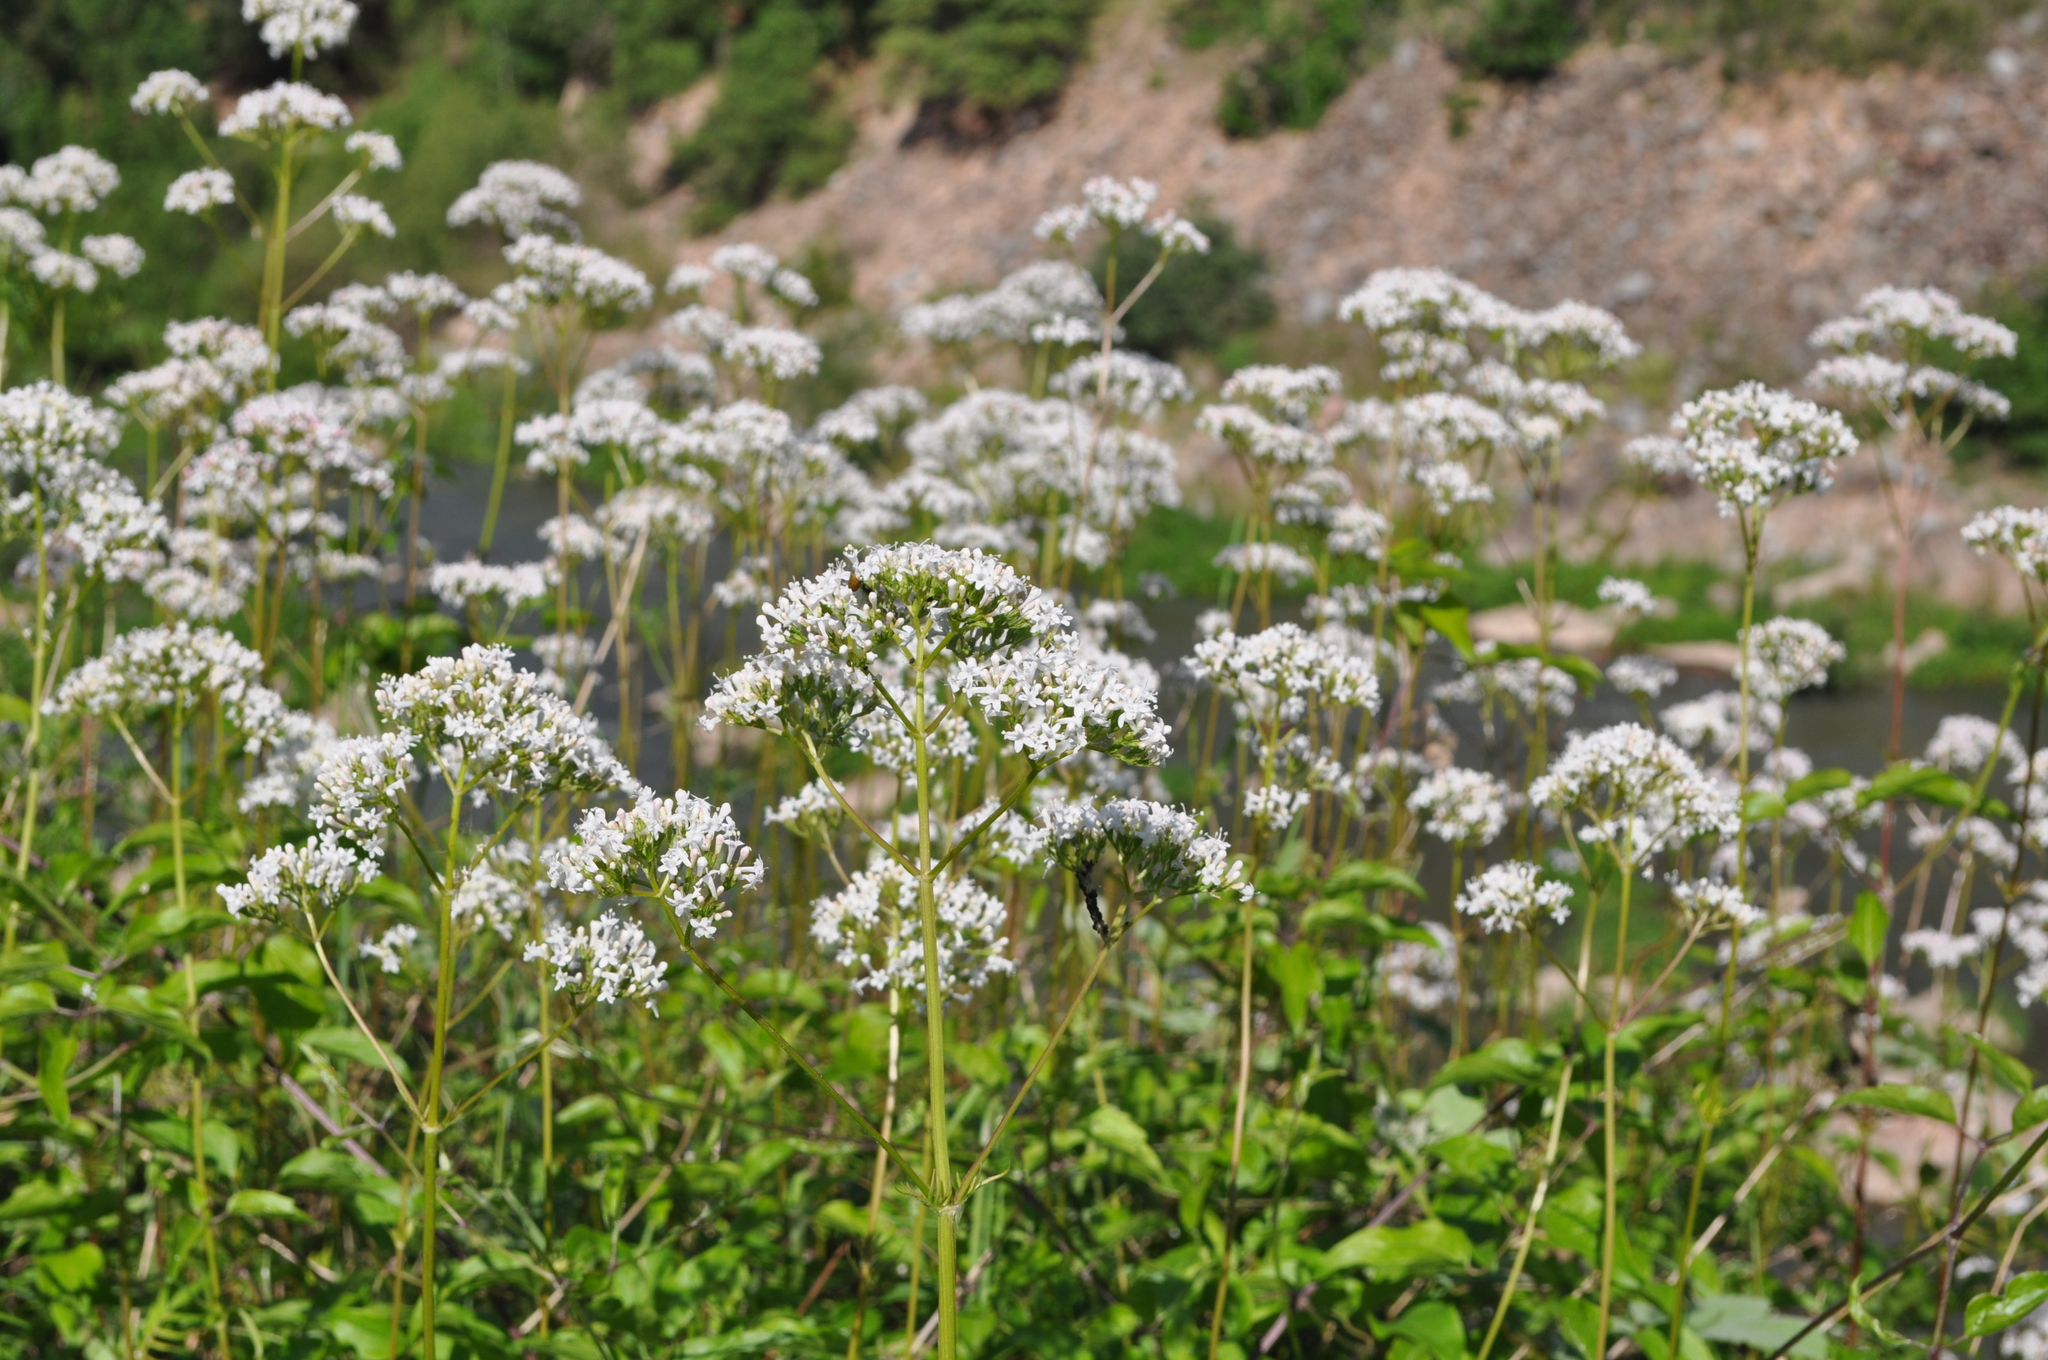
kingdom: Plantae
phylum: Tracheophyta
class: Magnoliopsida
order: Dipsacales
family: Caprifoliaceae
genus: Valeriana
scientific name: Valeriana officinalis
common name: Common valerian
